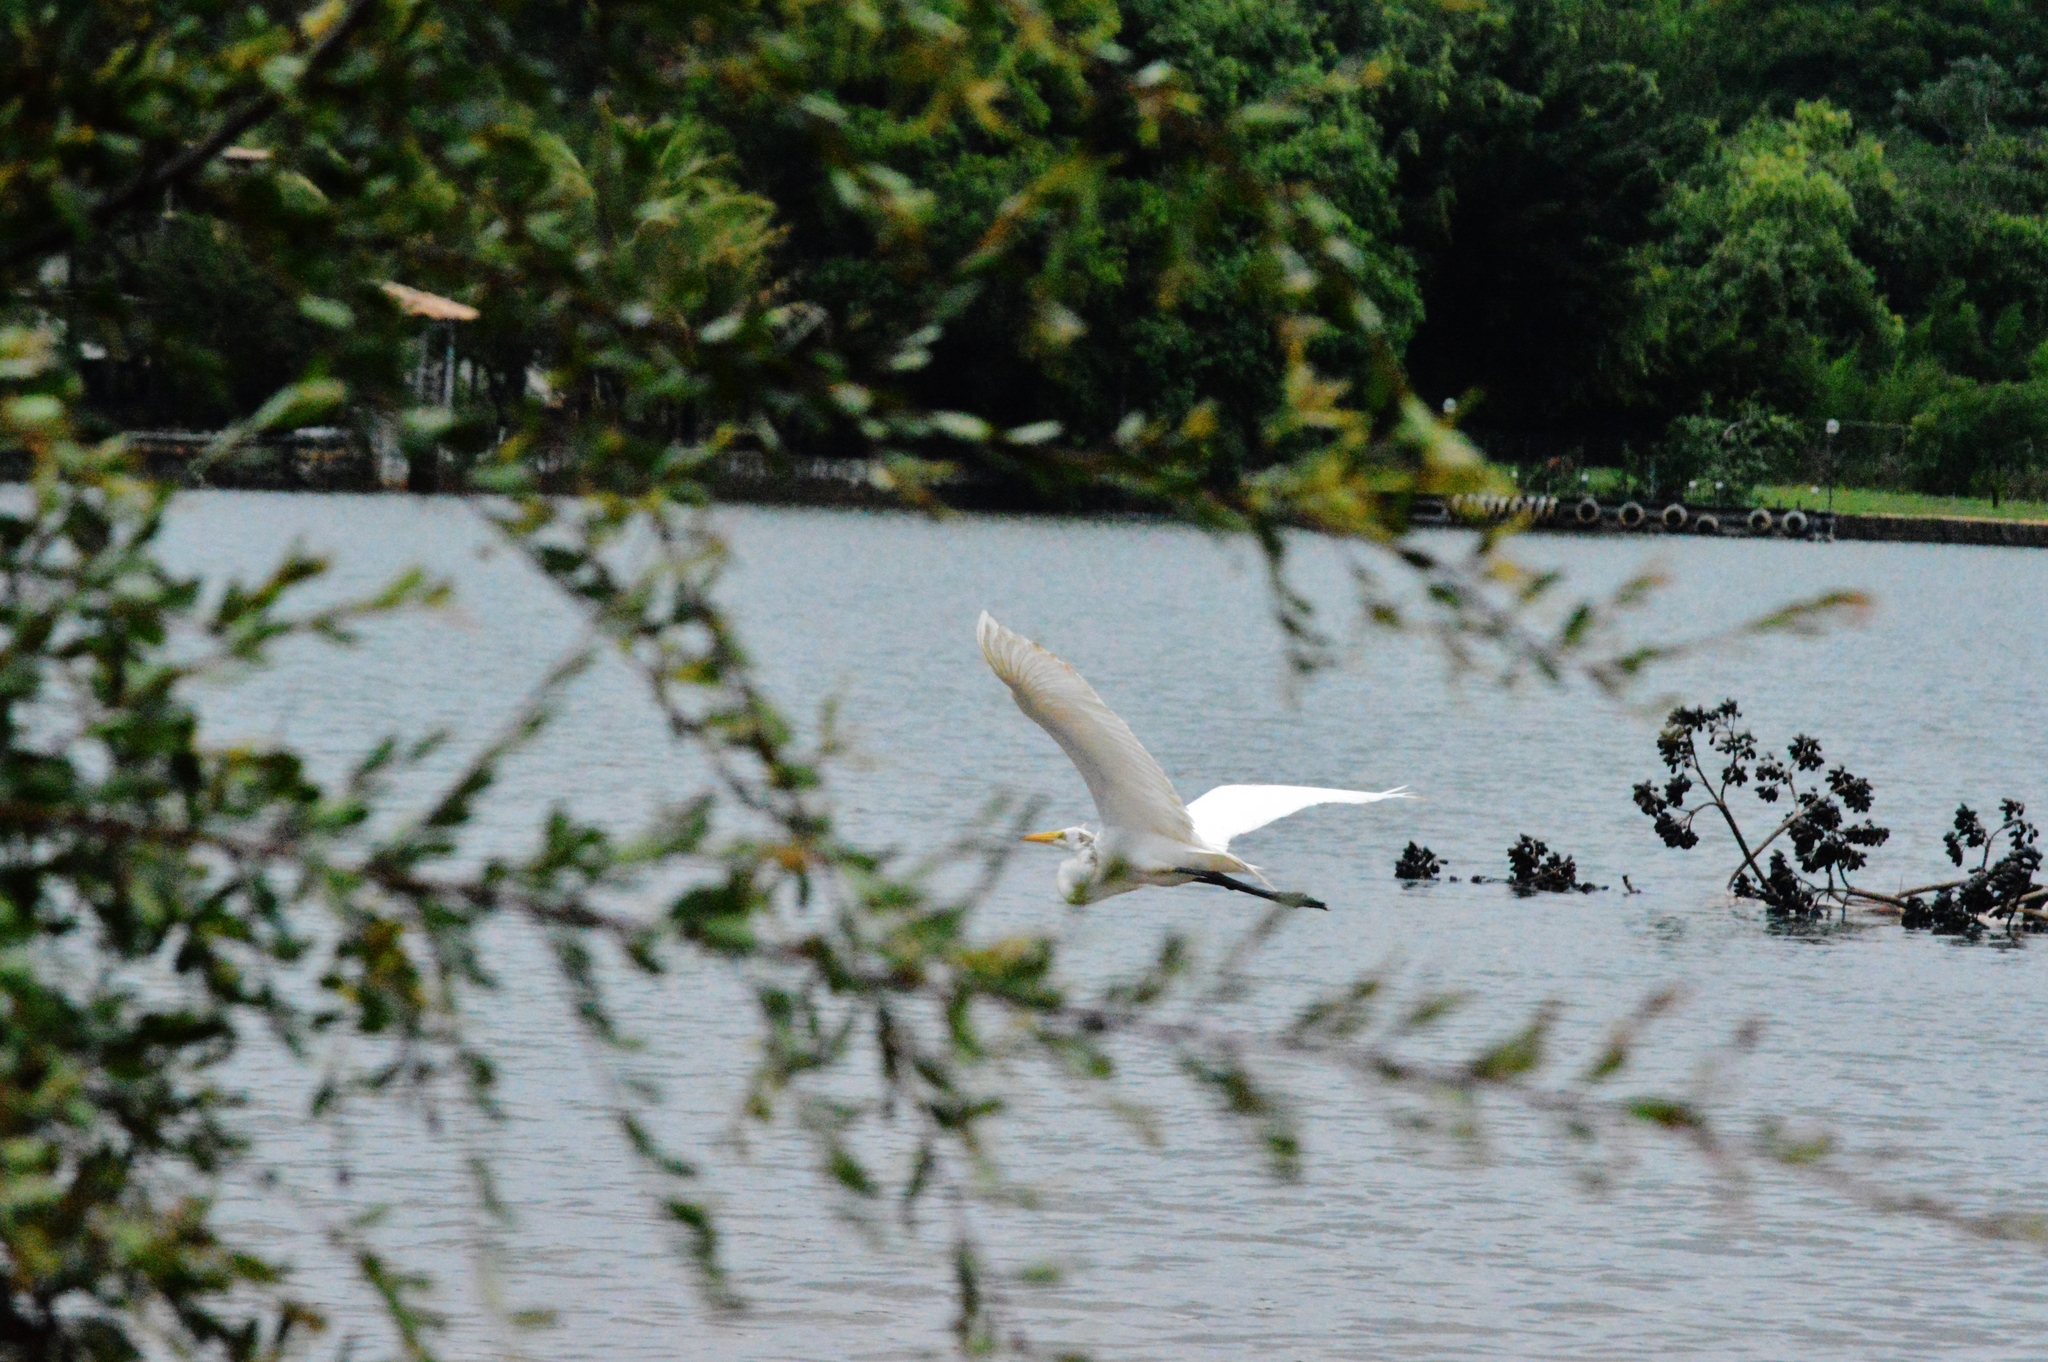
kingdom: Animalia
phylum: Chordata
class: Aves
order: Pelecaniformes
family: Ardeidae
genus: Ardea
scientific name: Ardea alba
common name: Great egret
